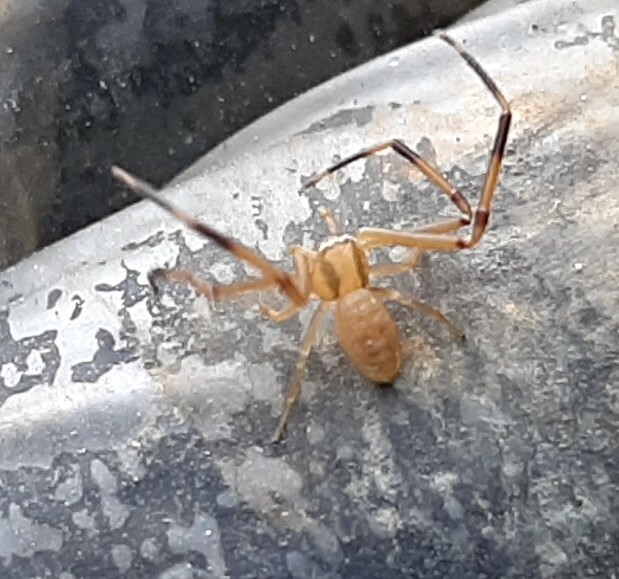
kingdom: Animalia
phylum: Arthropoda
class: Arachnida
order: Araneae
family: Thomisidae
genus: Runcinia
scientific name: Runcinia grammica
